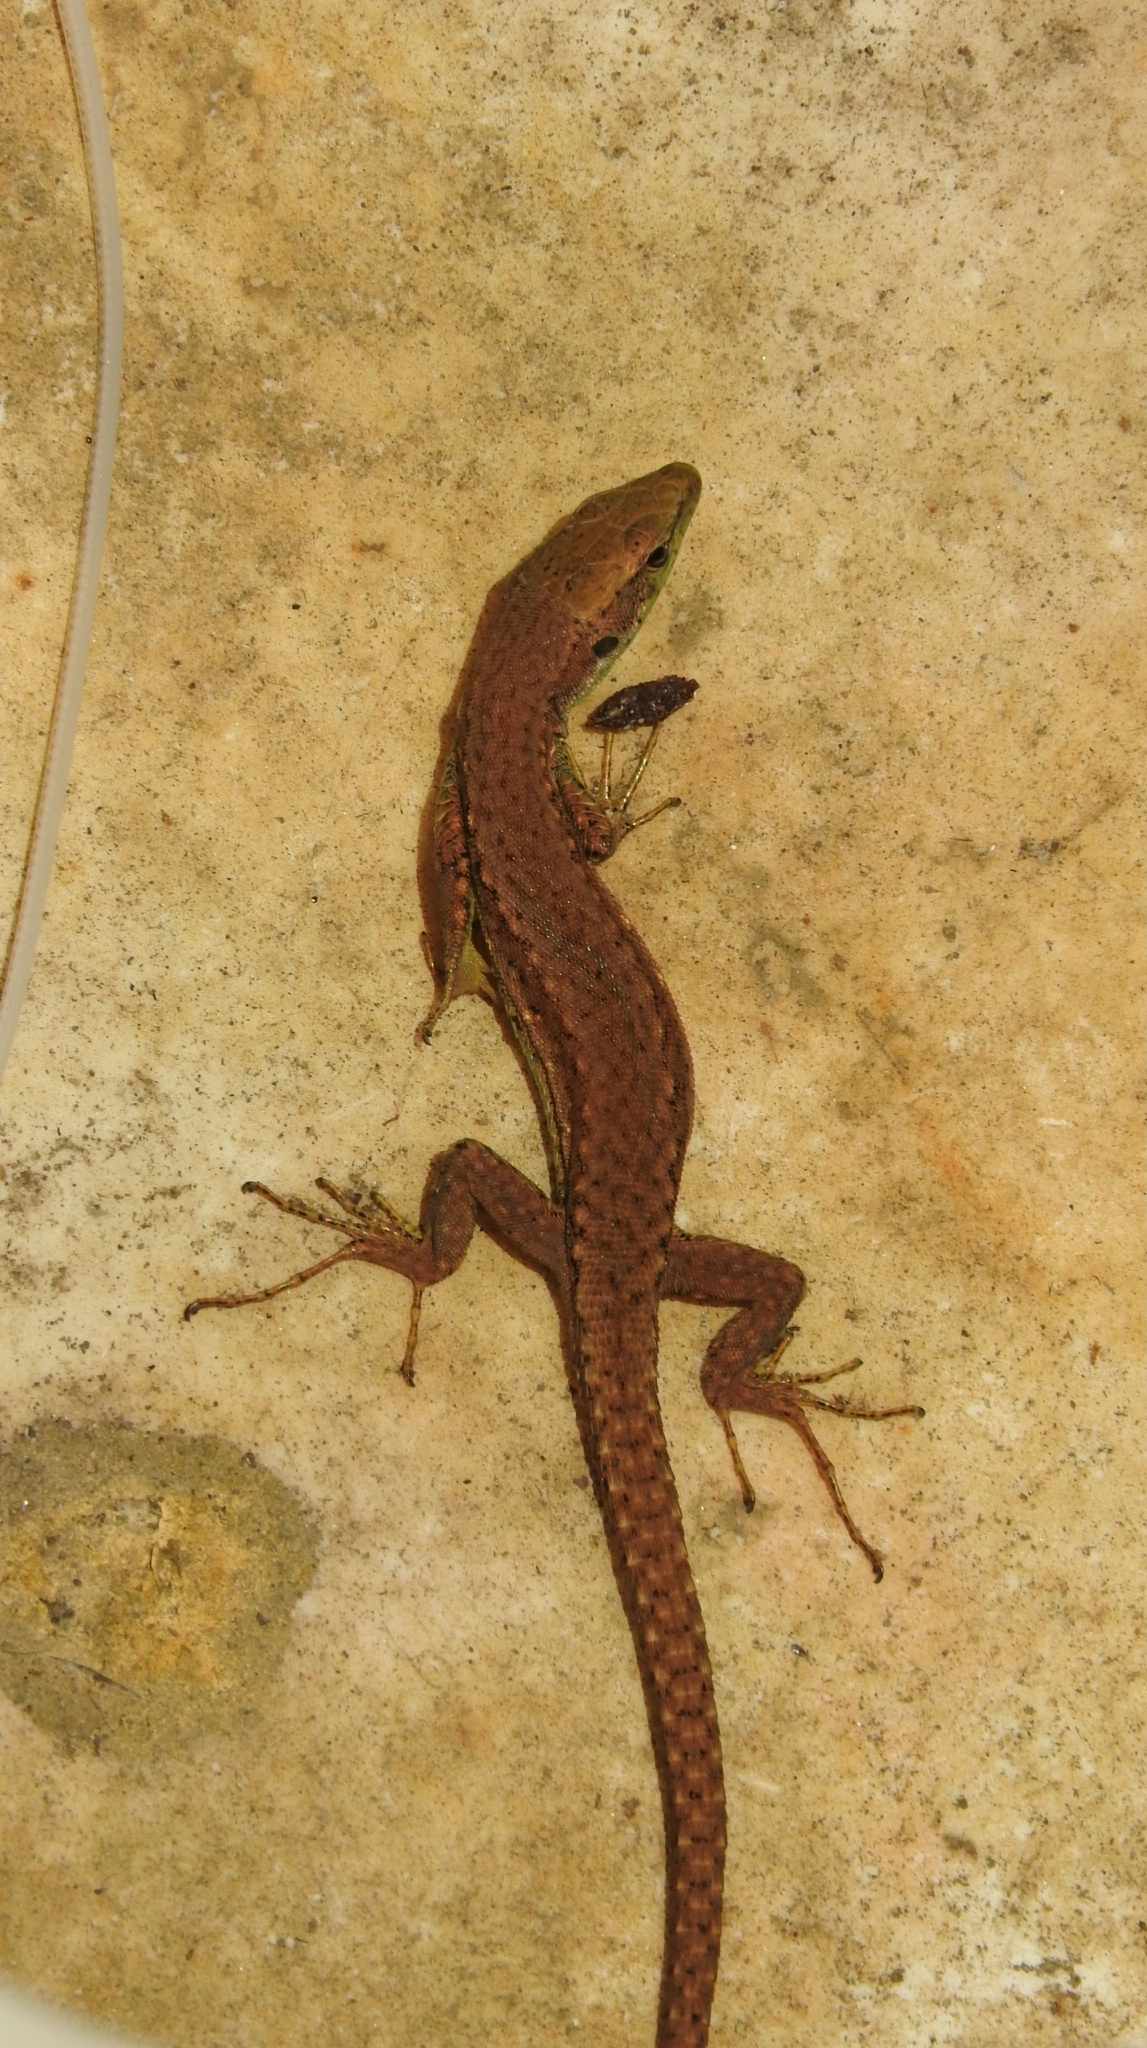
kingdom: Animalia
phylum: Chordata
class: Squamata
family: Lacertidae
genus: Darevskia
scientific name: Darevskia chlorogaster
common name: Green-bellied lizard
